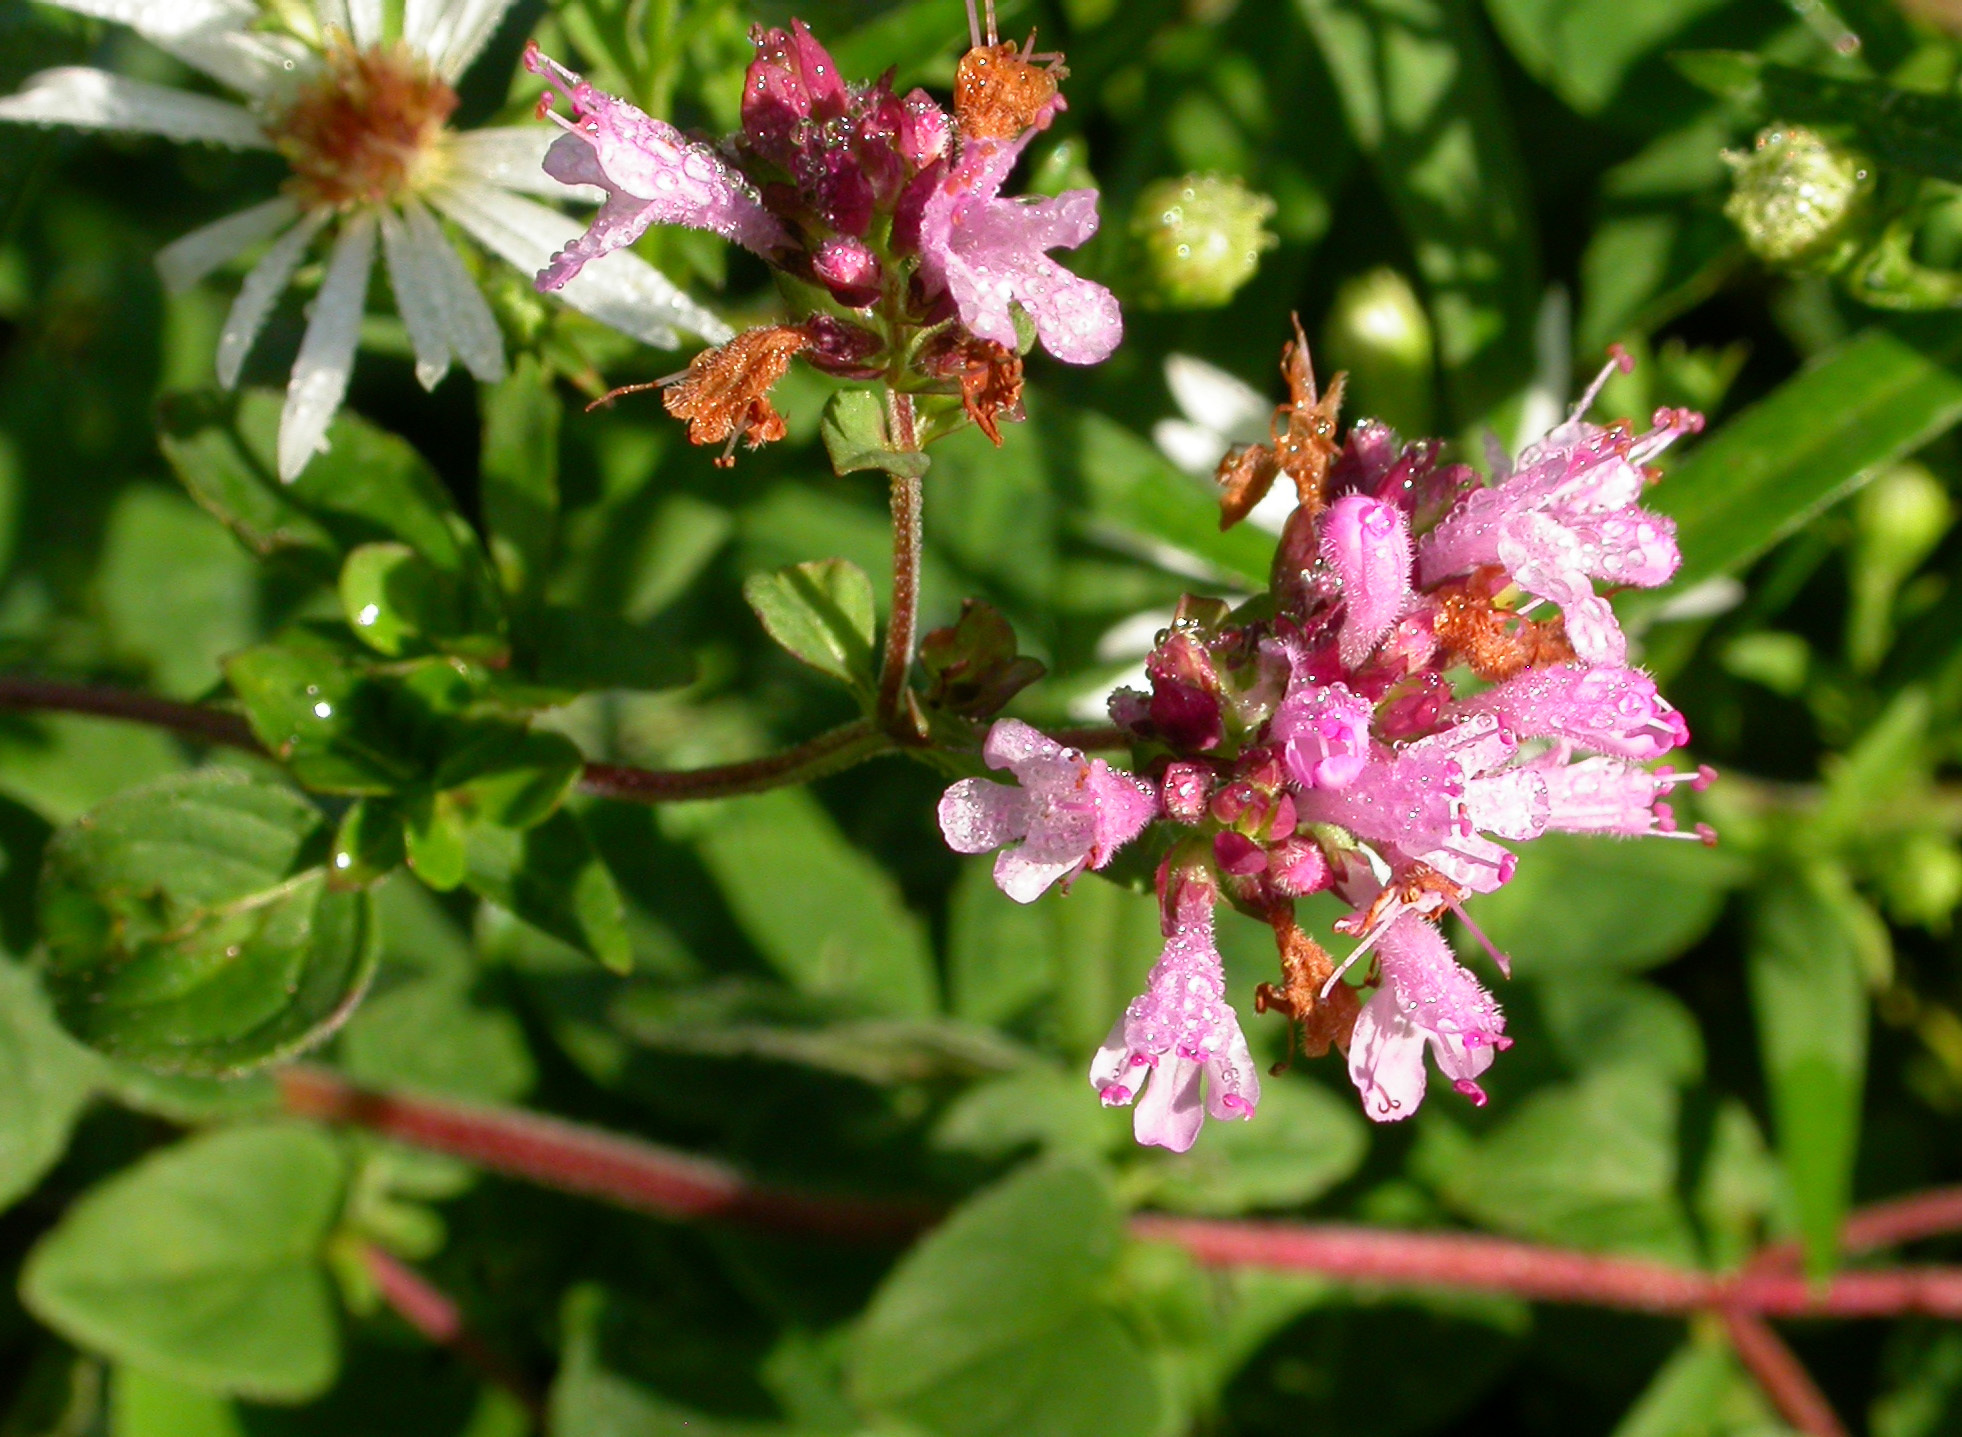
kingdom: Plantae
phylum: Tracheophyta
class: Magnoliopsida
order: Lamiales
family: Lamiaceae
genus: Origanum
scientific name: Origanum vulgare
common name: Wild marjoram
